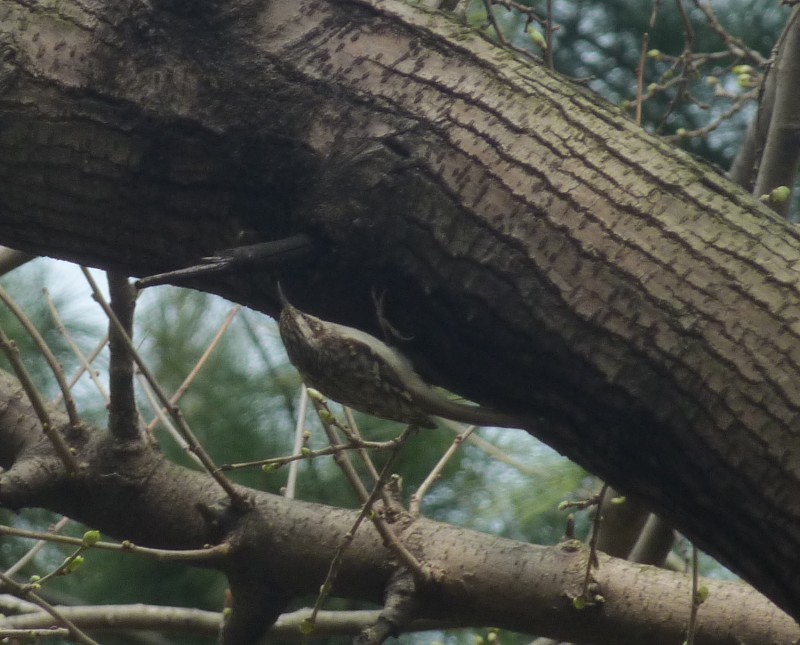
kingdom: Animalia
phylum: Chordata
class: Aves
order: Passeriformes
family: Certhiidae
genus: Certhia
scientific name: Certhia americana
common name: Brown creeper
